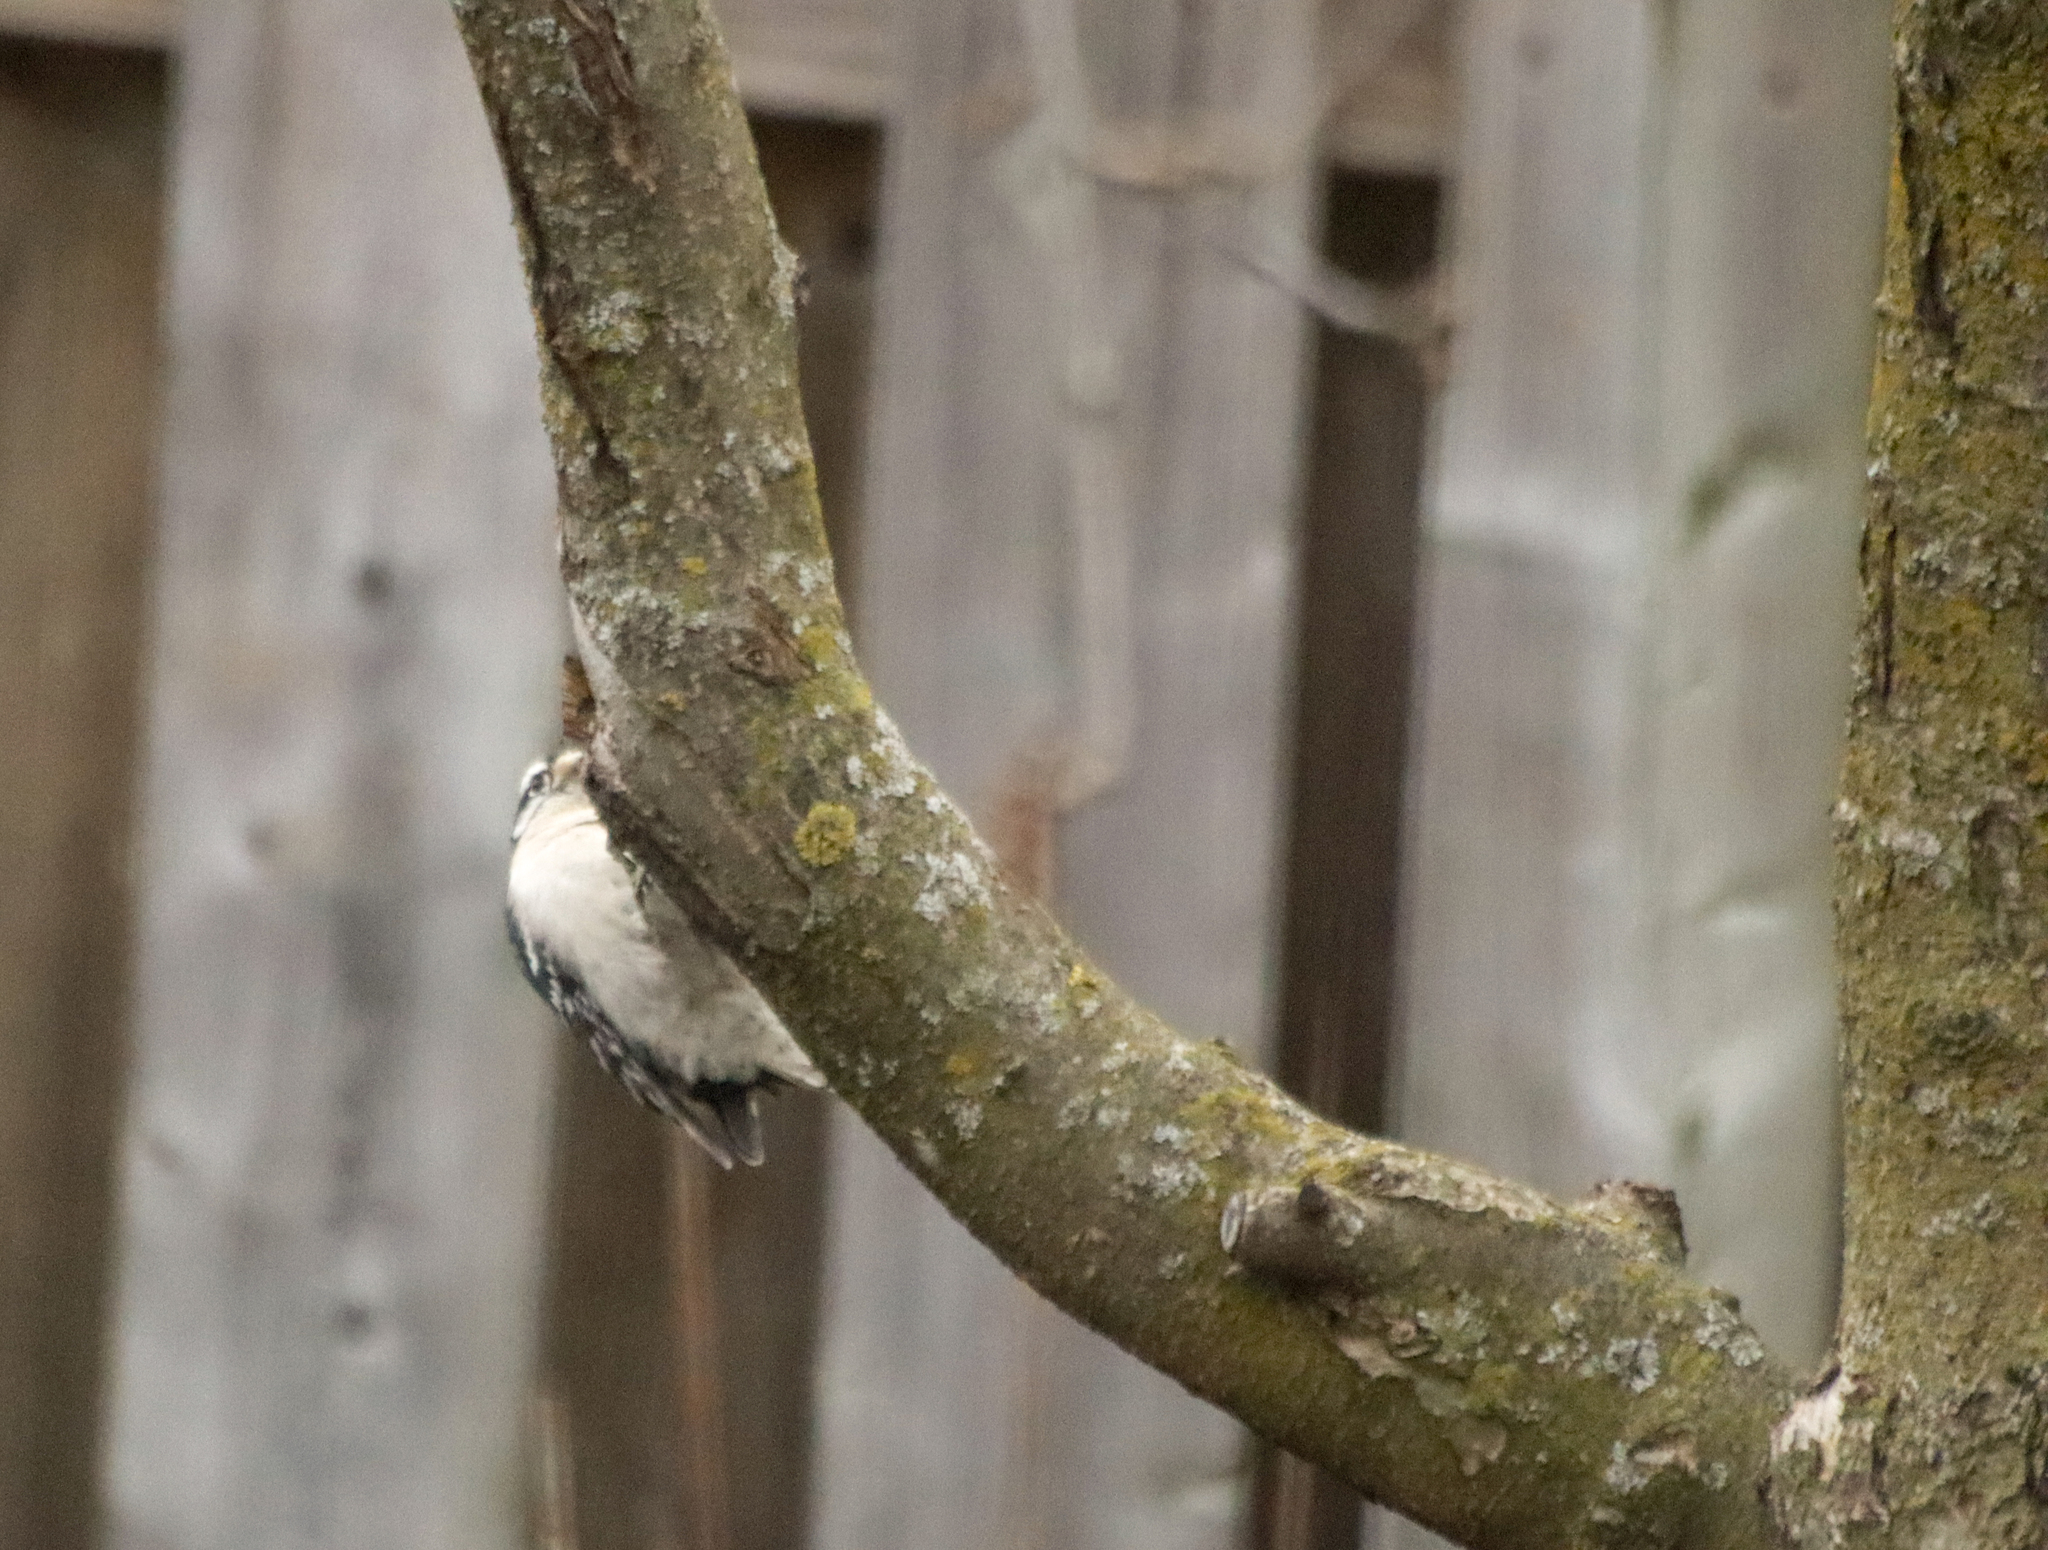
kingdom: Animalia
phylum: Chordata
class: Aves
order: Piciformes
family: Picidae
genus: Dryobates
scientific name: Dryobates pubescens
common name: Downy woodpecker
